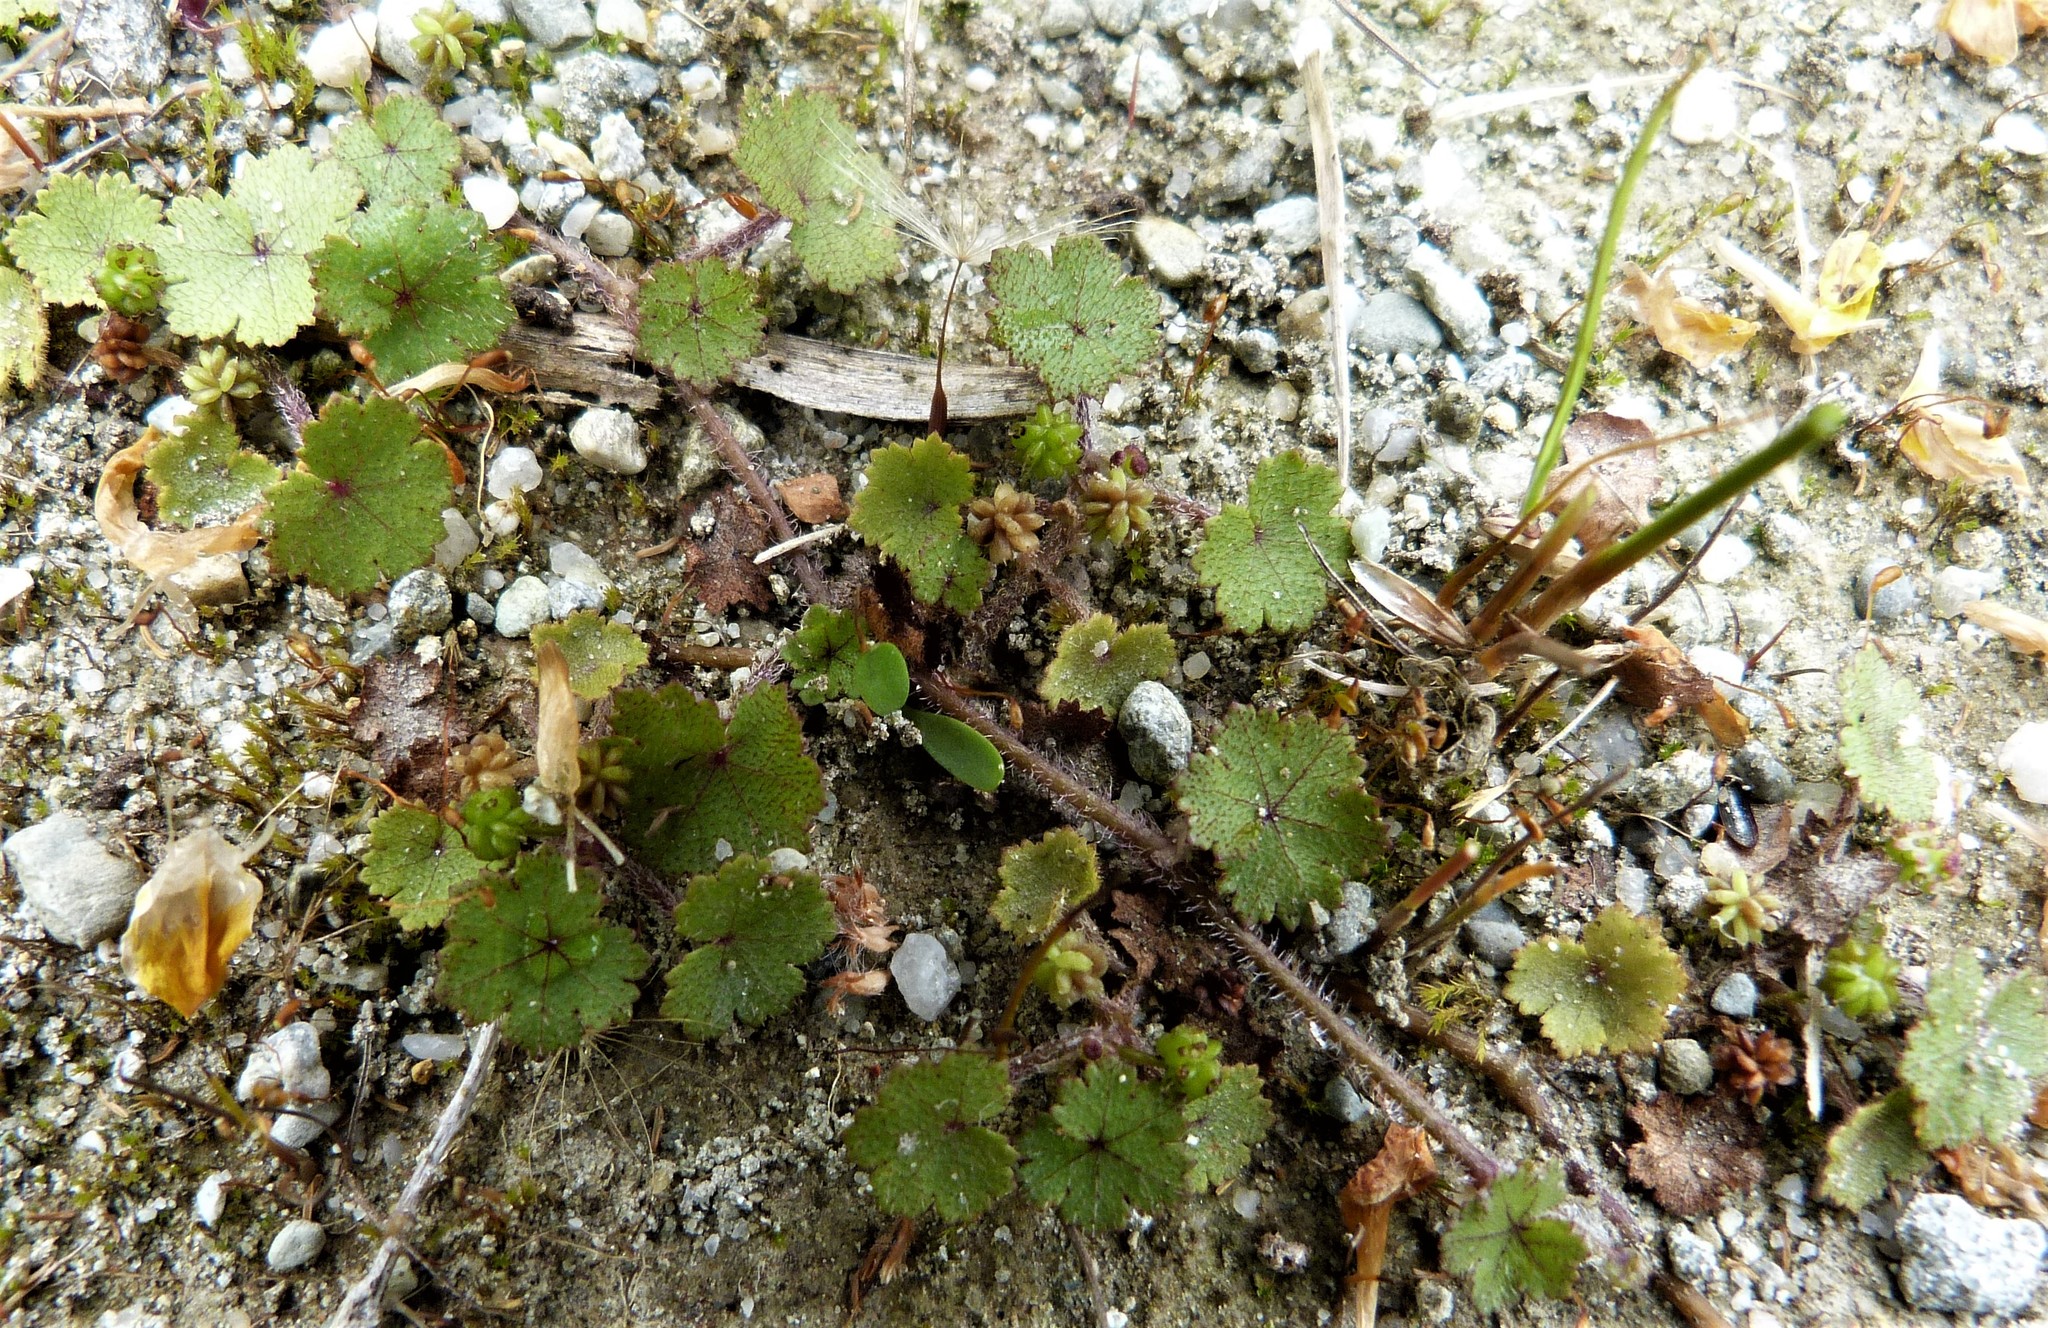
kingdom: Plantae
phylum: Tracheophyta
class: Magnoliopsida
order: Apiales
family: Araliaceae
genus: Hydrocotyle
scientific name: Hydrocotyle moschata
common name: Hairy pennywort
